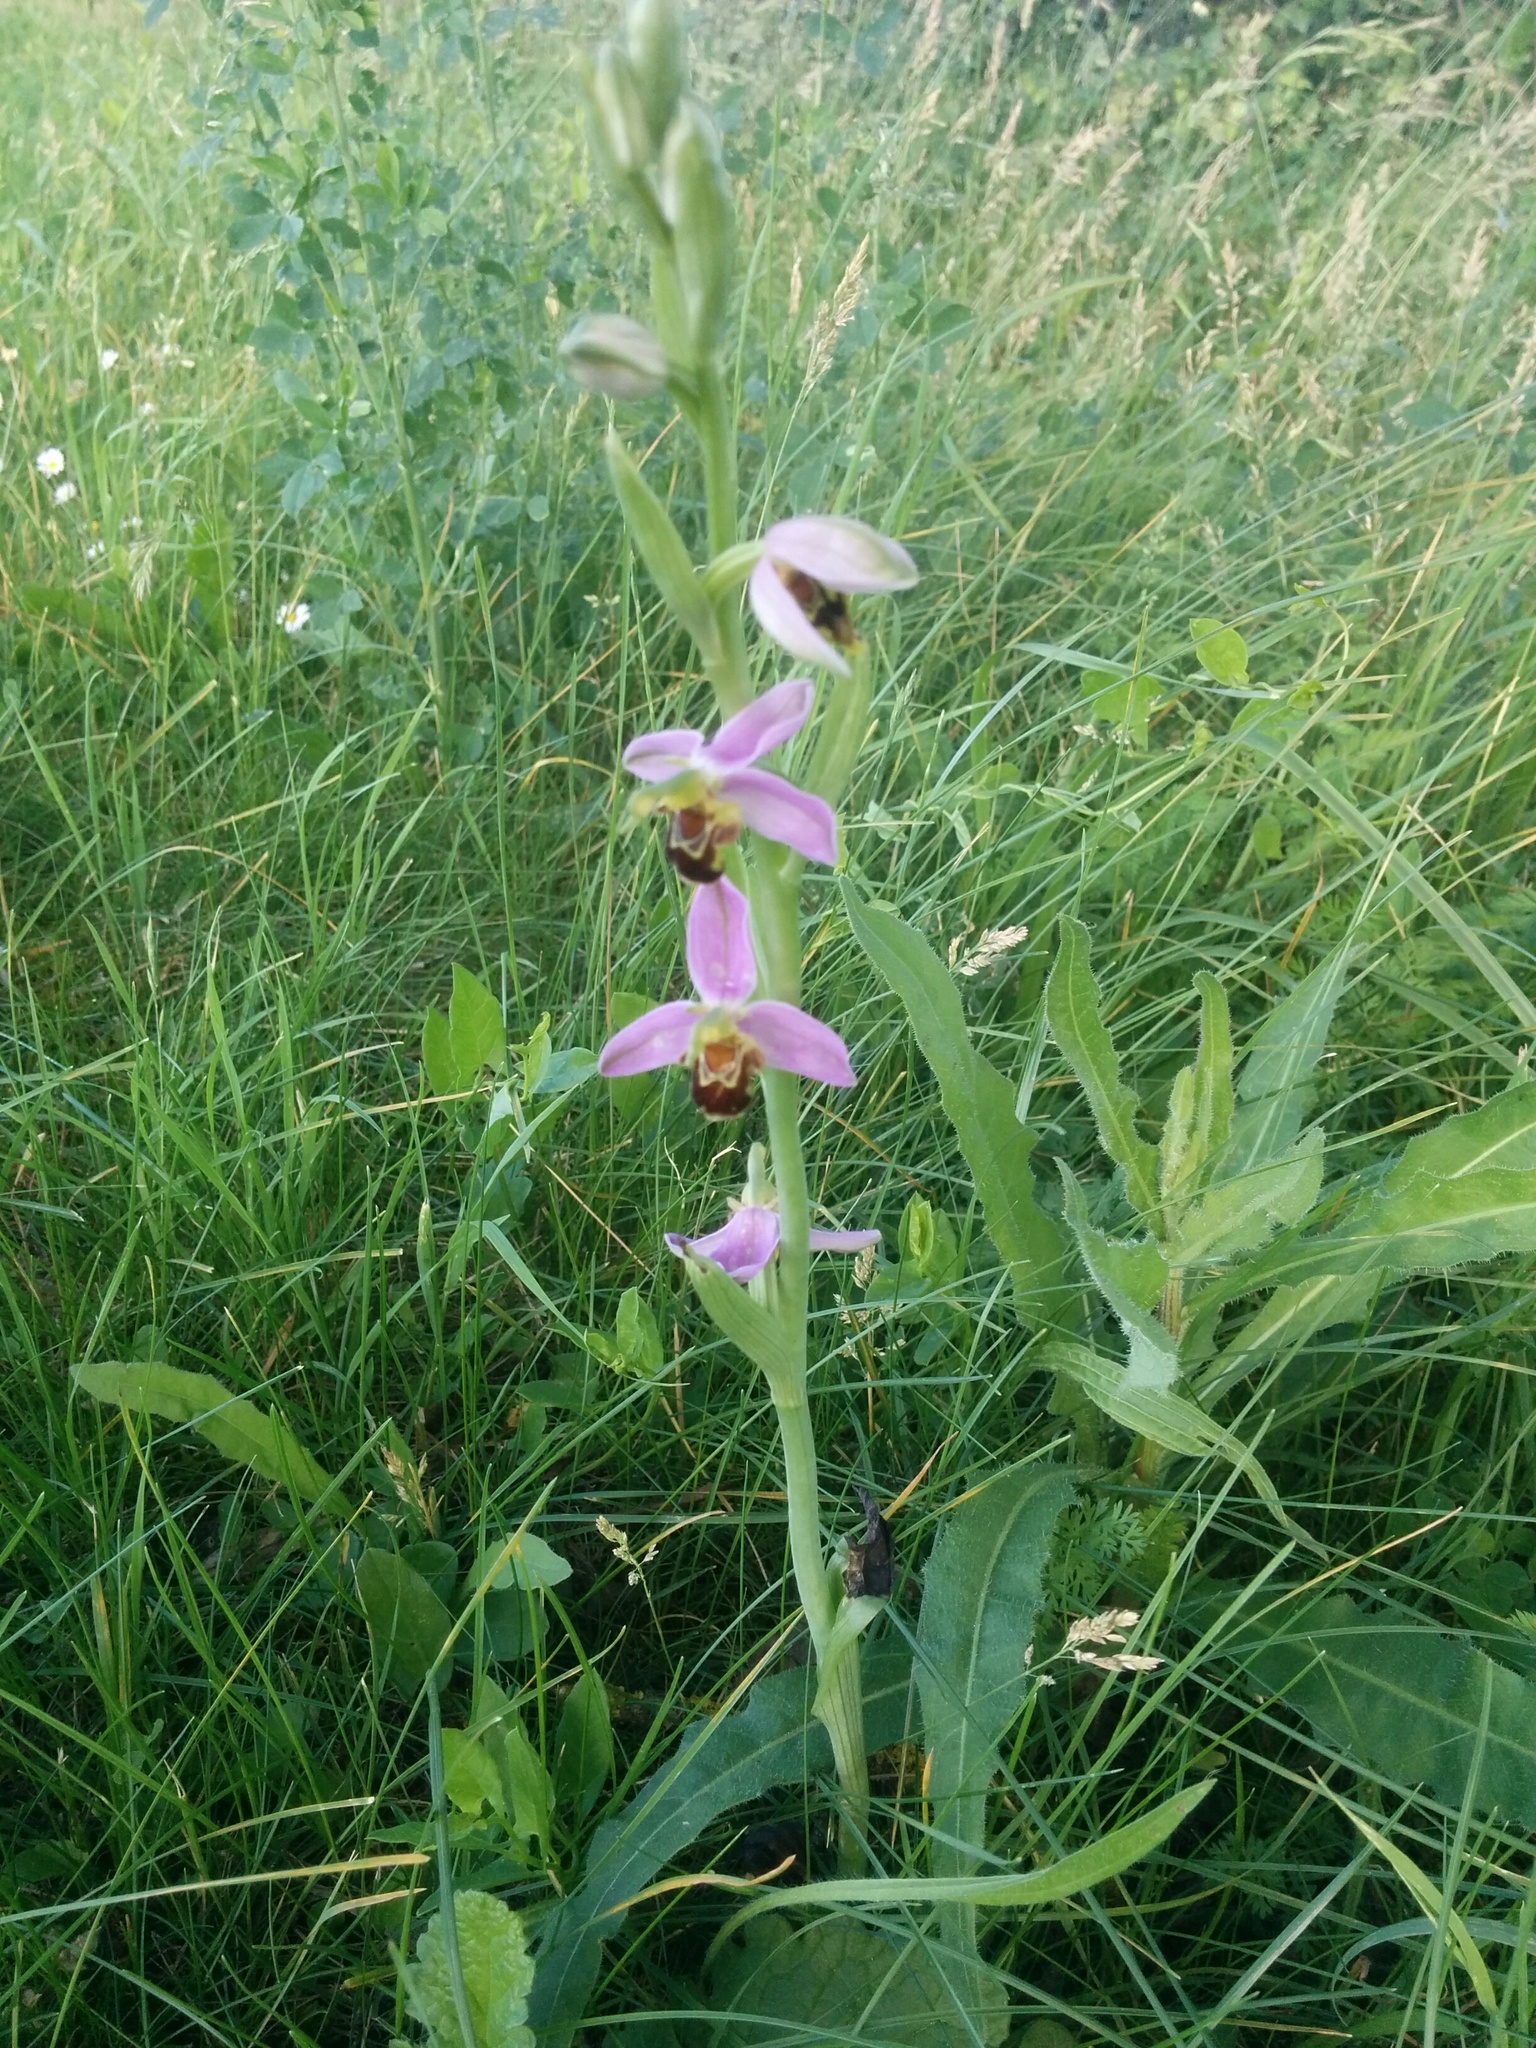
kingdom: Plantae
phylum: Tracheophyta
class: Liliopsida
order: Asparagales
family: Orchidaceae
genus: Ophrys
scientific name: Ophrys apifera
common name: Bee orchid
